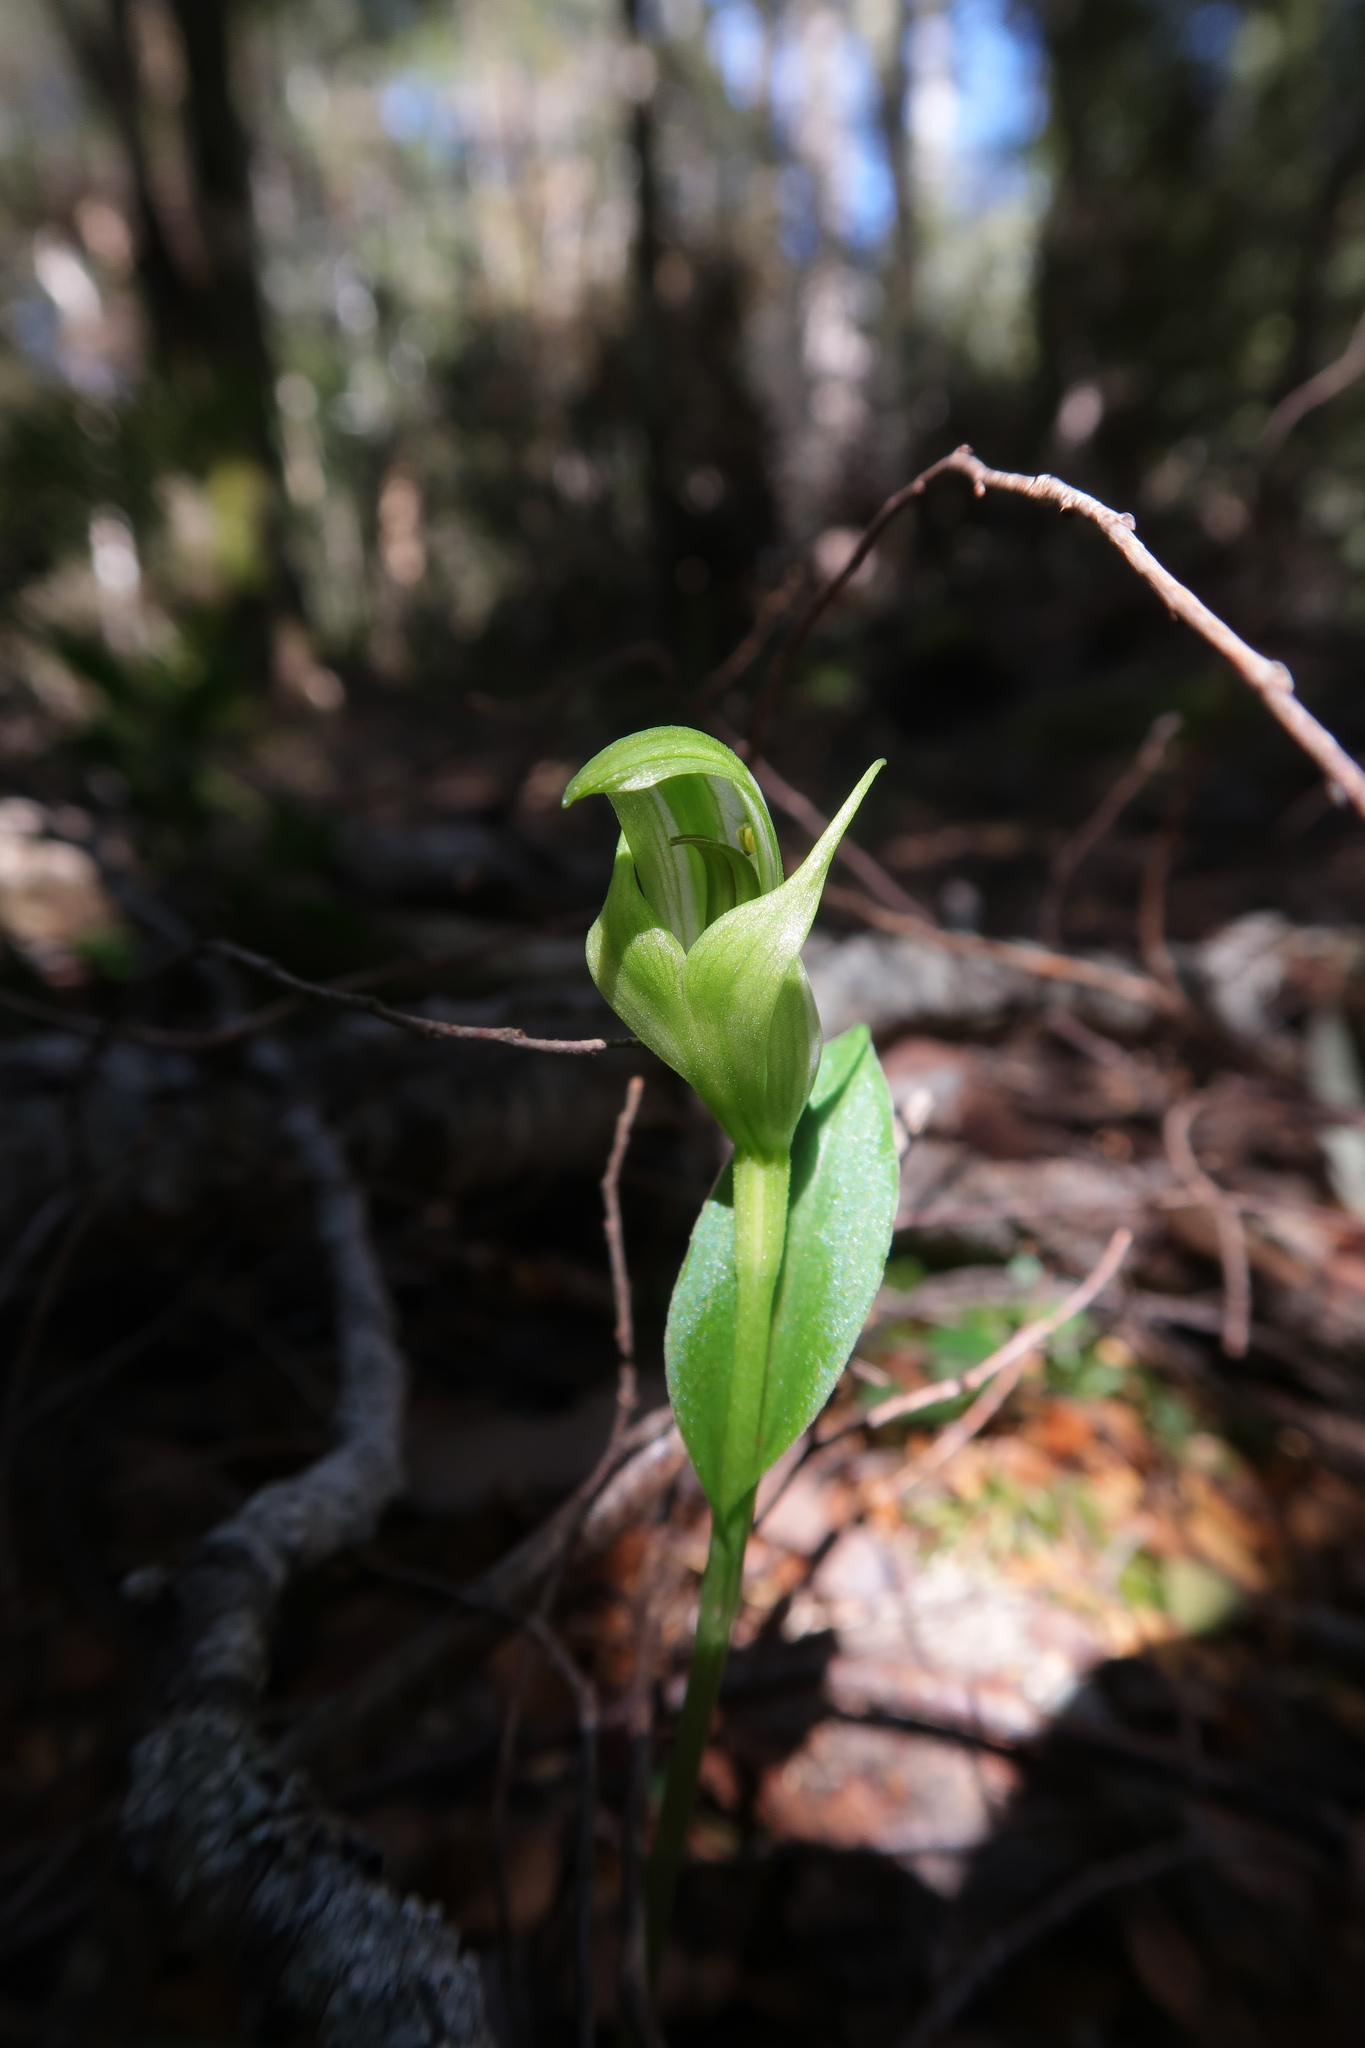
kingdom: Plantae
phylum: Tracheophyta
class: Liliopsida
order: Asparagales
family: Orchidaceae
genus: Pterostylis
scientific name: Pterostylis scabrida
